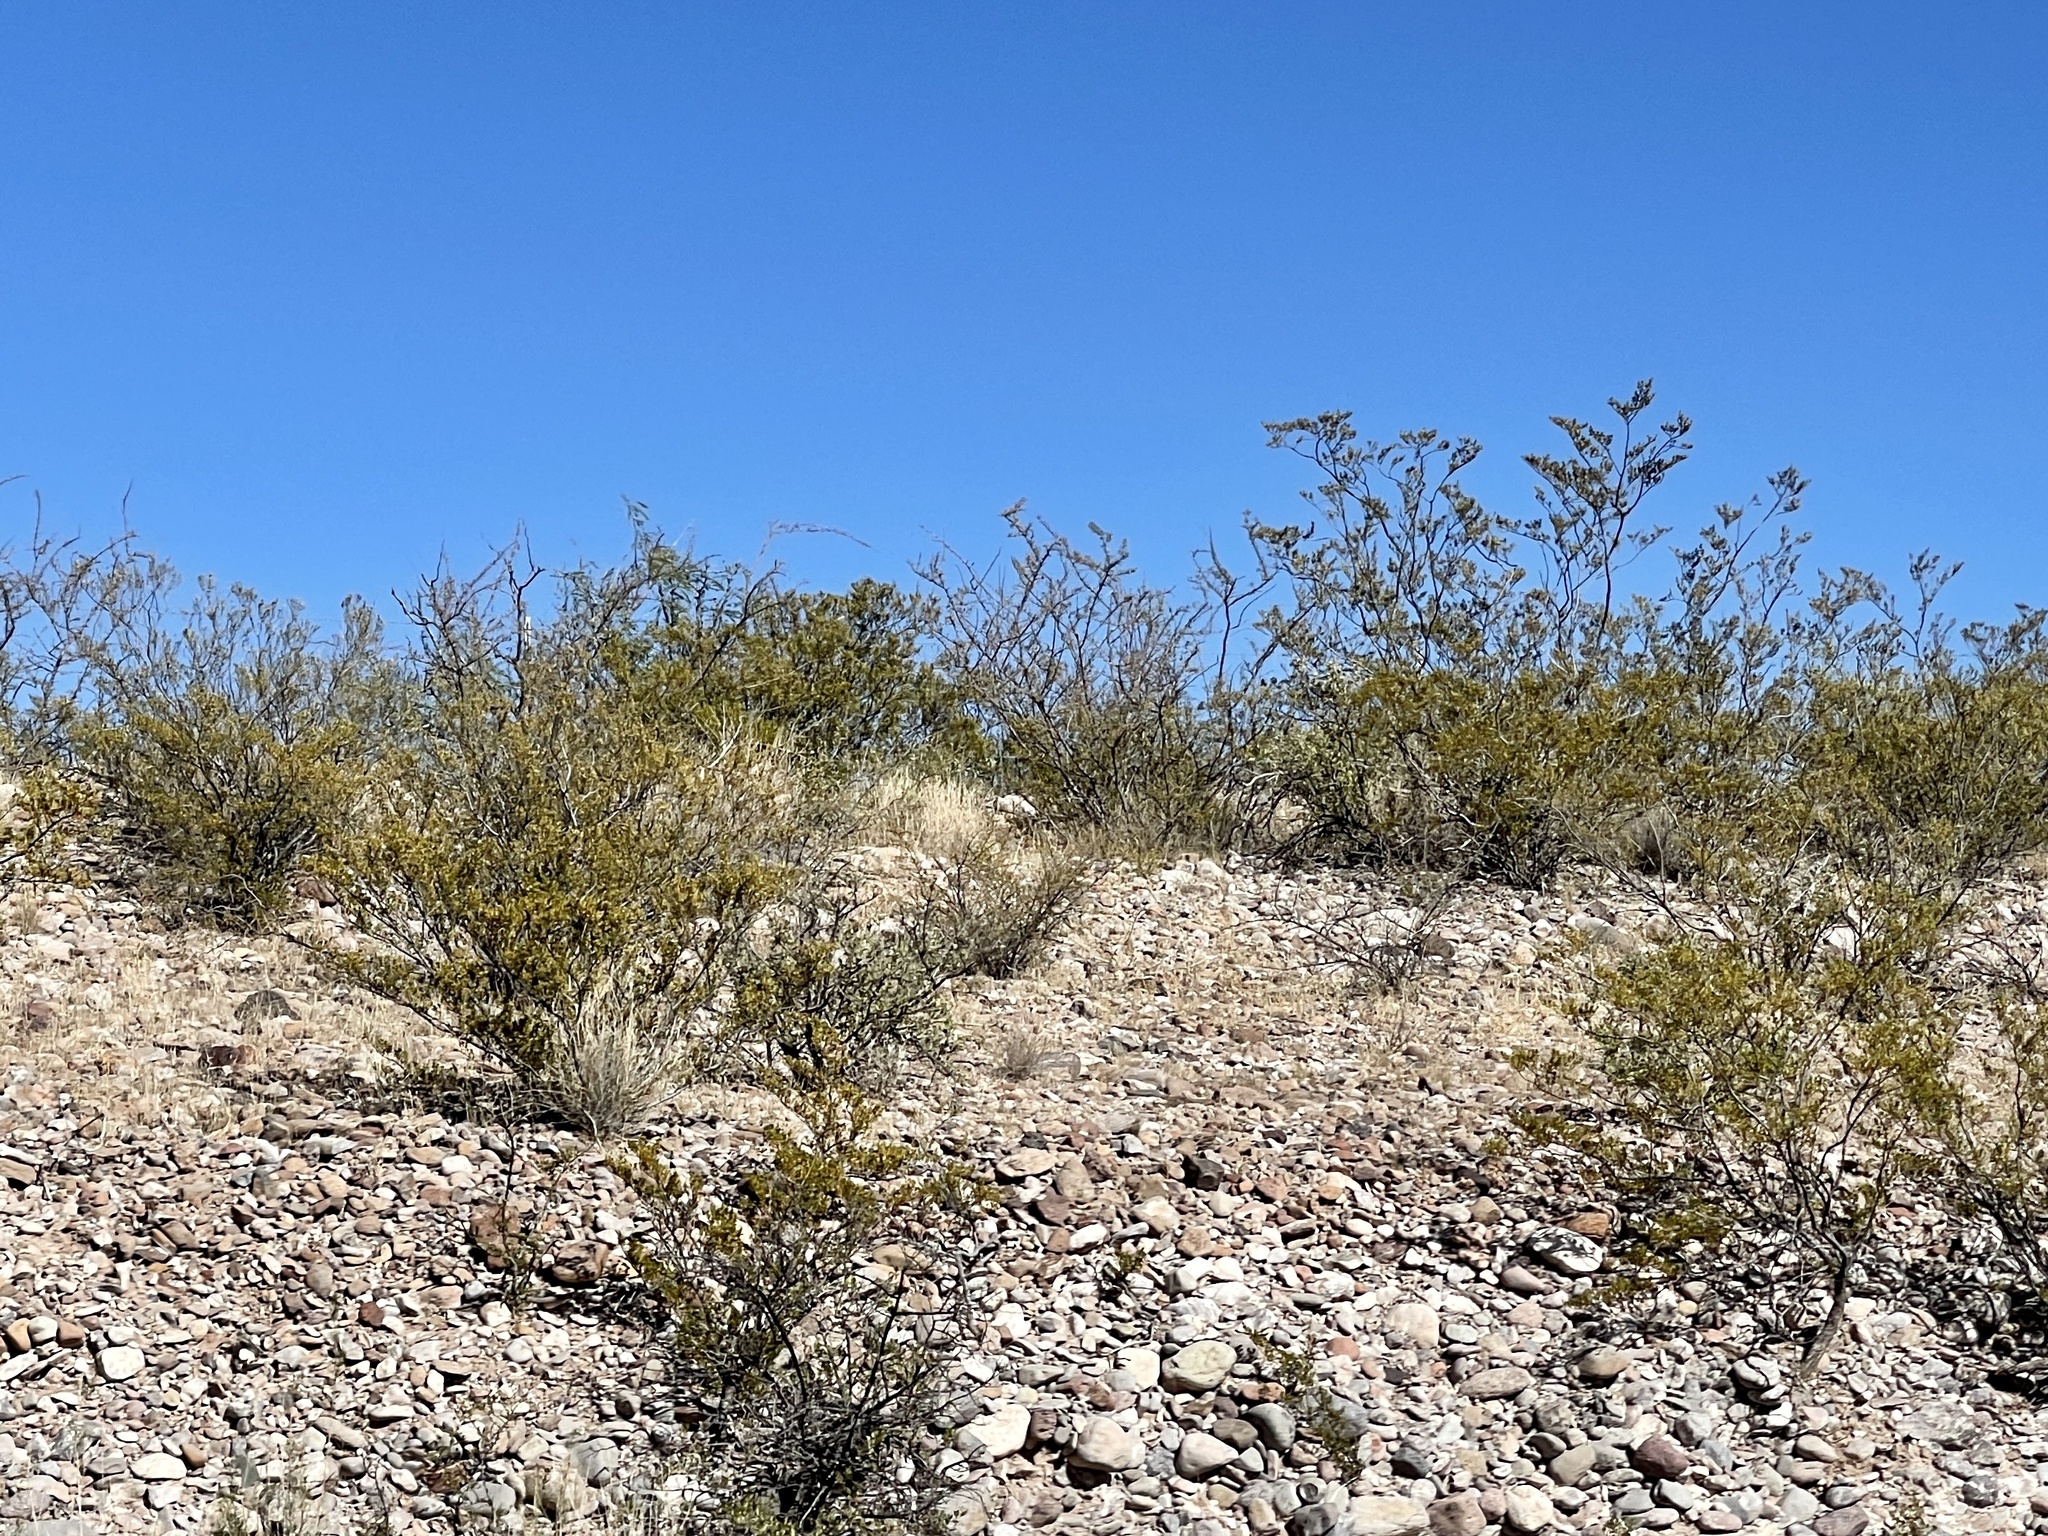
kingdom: Plantae
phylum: Tracheophyta
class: Magnoliopsida
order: Zygophyllales
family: Zygophyllaceae
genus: Larrea
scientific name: Larrea tridentata
